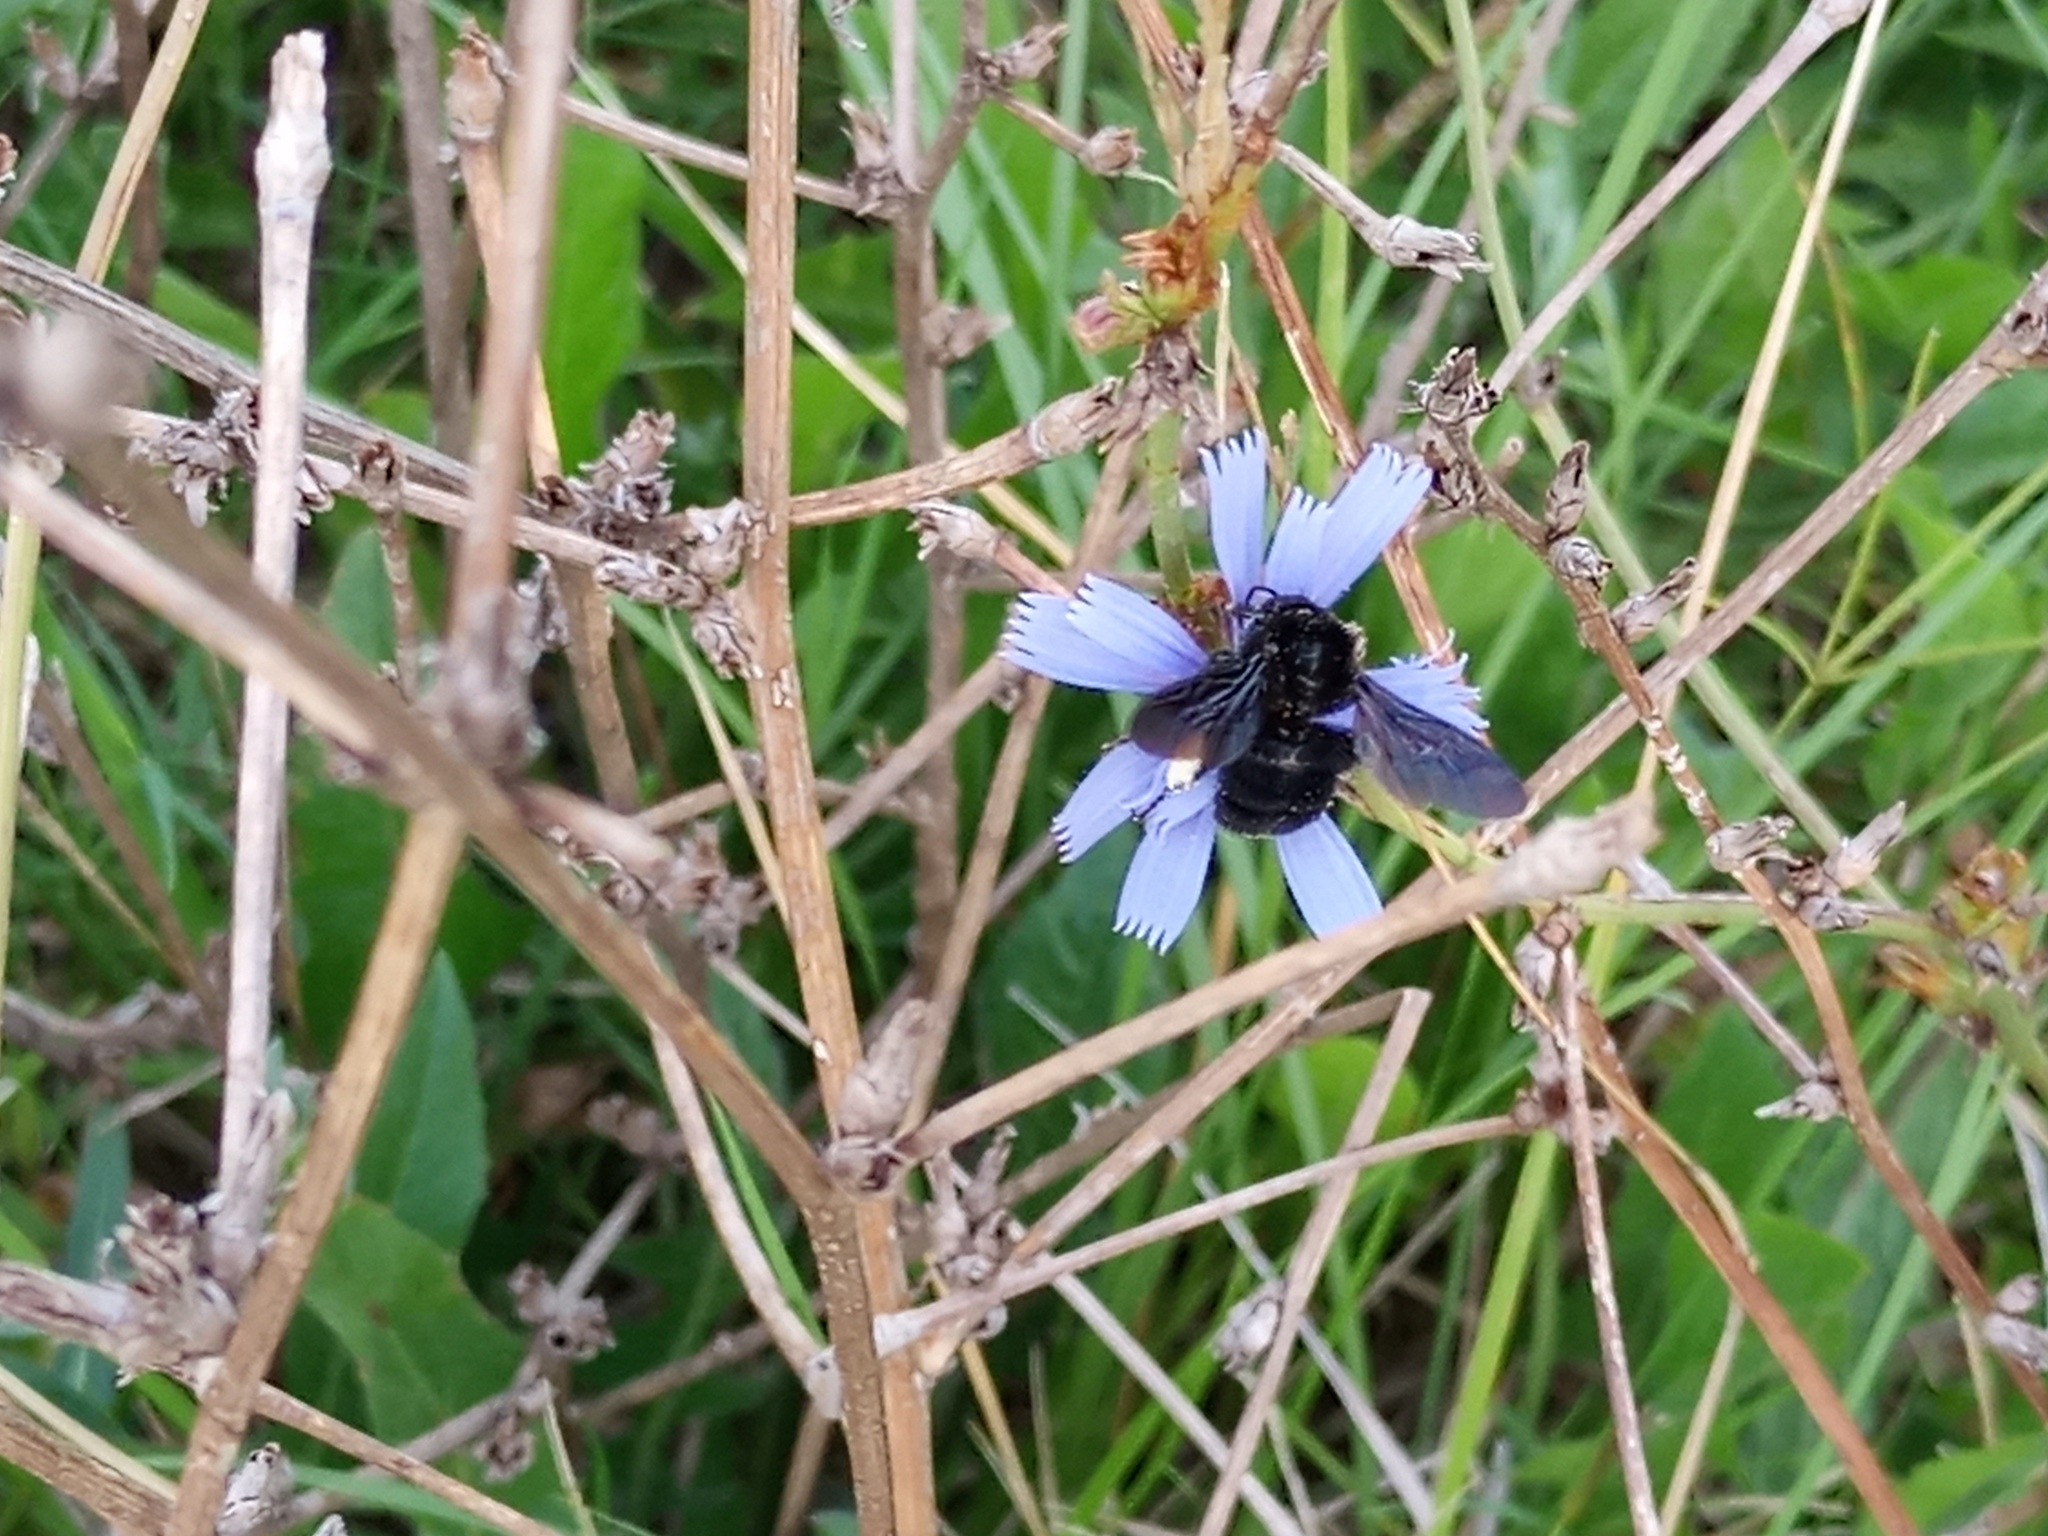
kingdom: Animalia
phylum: Arthropoda
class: Insecta
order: Hymenoptera
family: Apidae
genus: Bombus
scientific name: Bombus pauloensis
